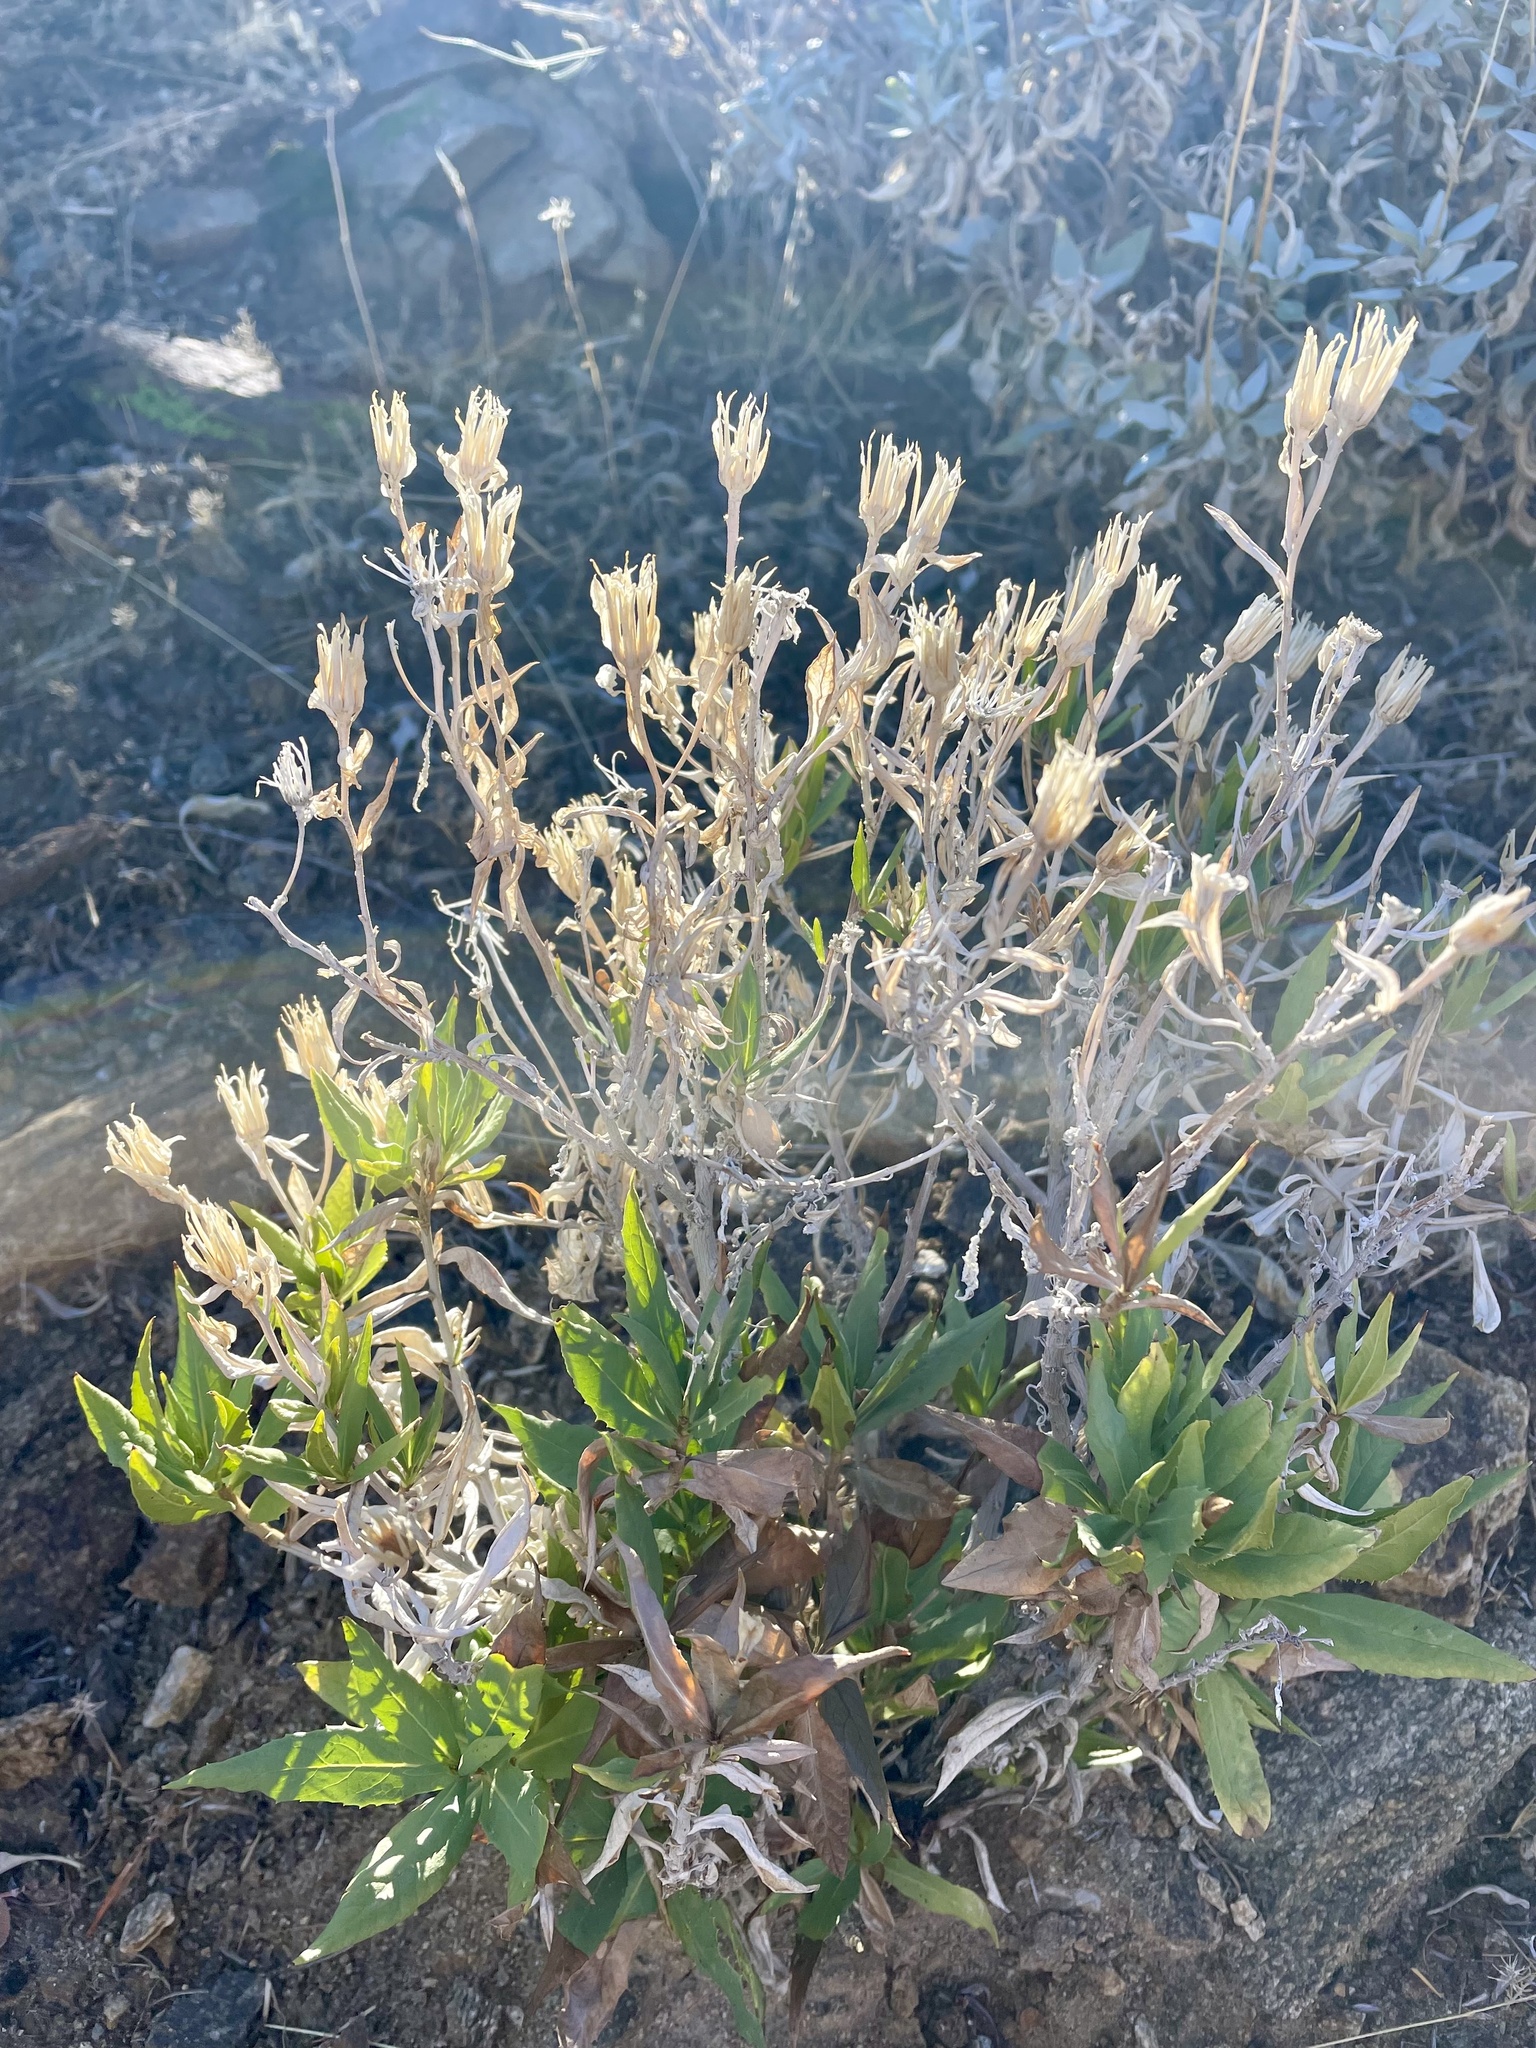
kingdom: Plantae
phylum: Tracheophyta
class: Magnoliopsida
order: Asterales
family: Asteraceae
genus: Trixis
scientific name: Trixis californica
